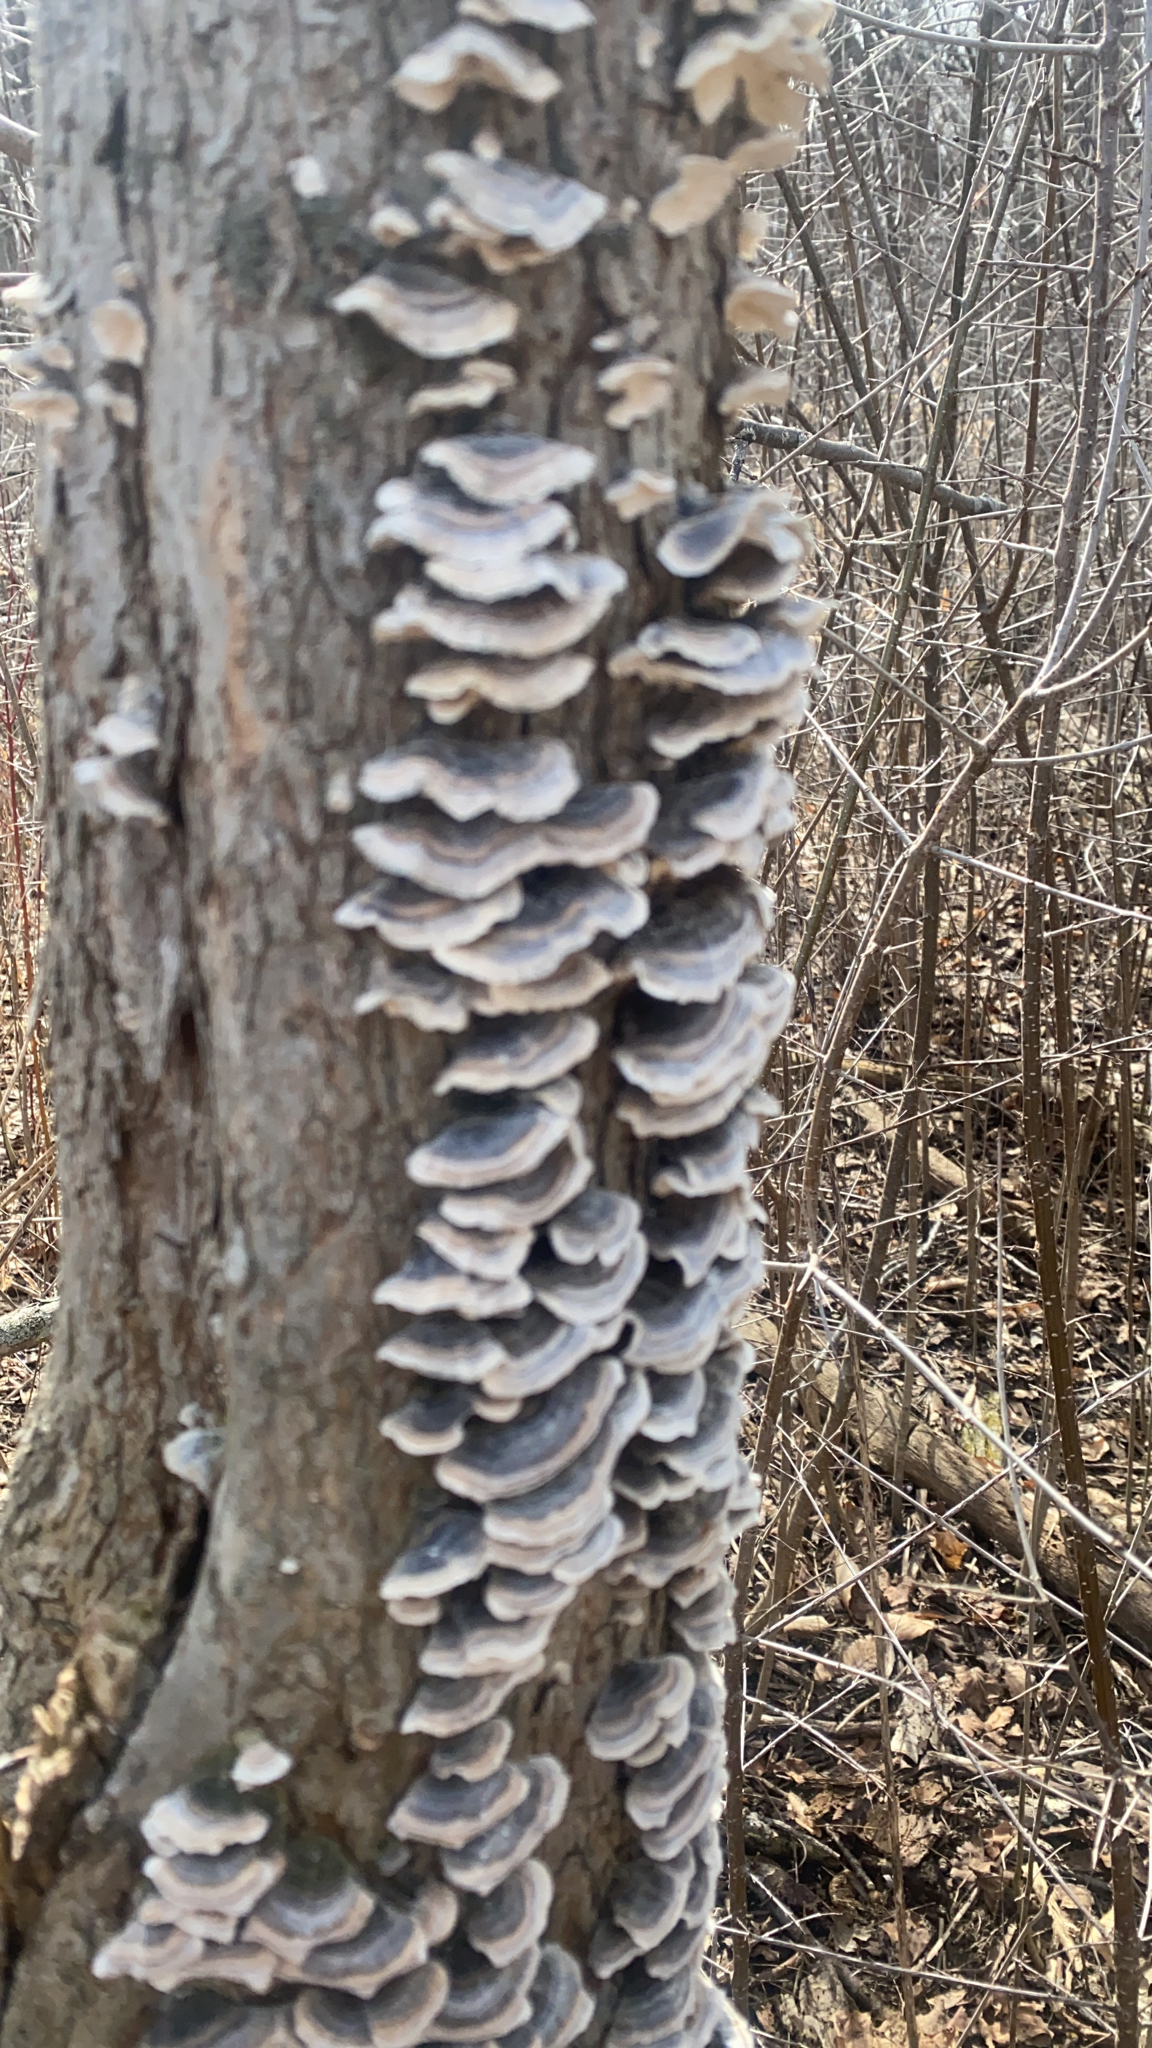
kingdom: Fungi
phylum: Basidiomycota
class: Agaricomycetes
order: Polyporales
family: Polyporaceae
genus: Trametes
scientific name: Trametes versicolor
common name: Turkeytail
